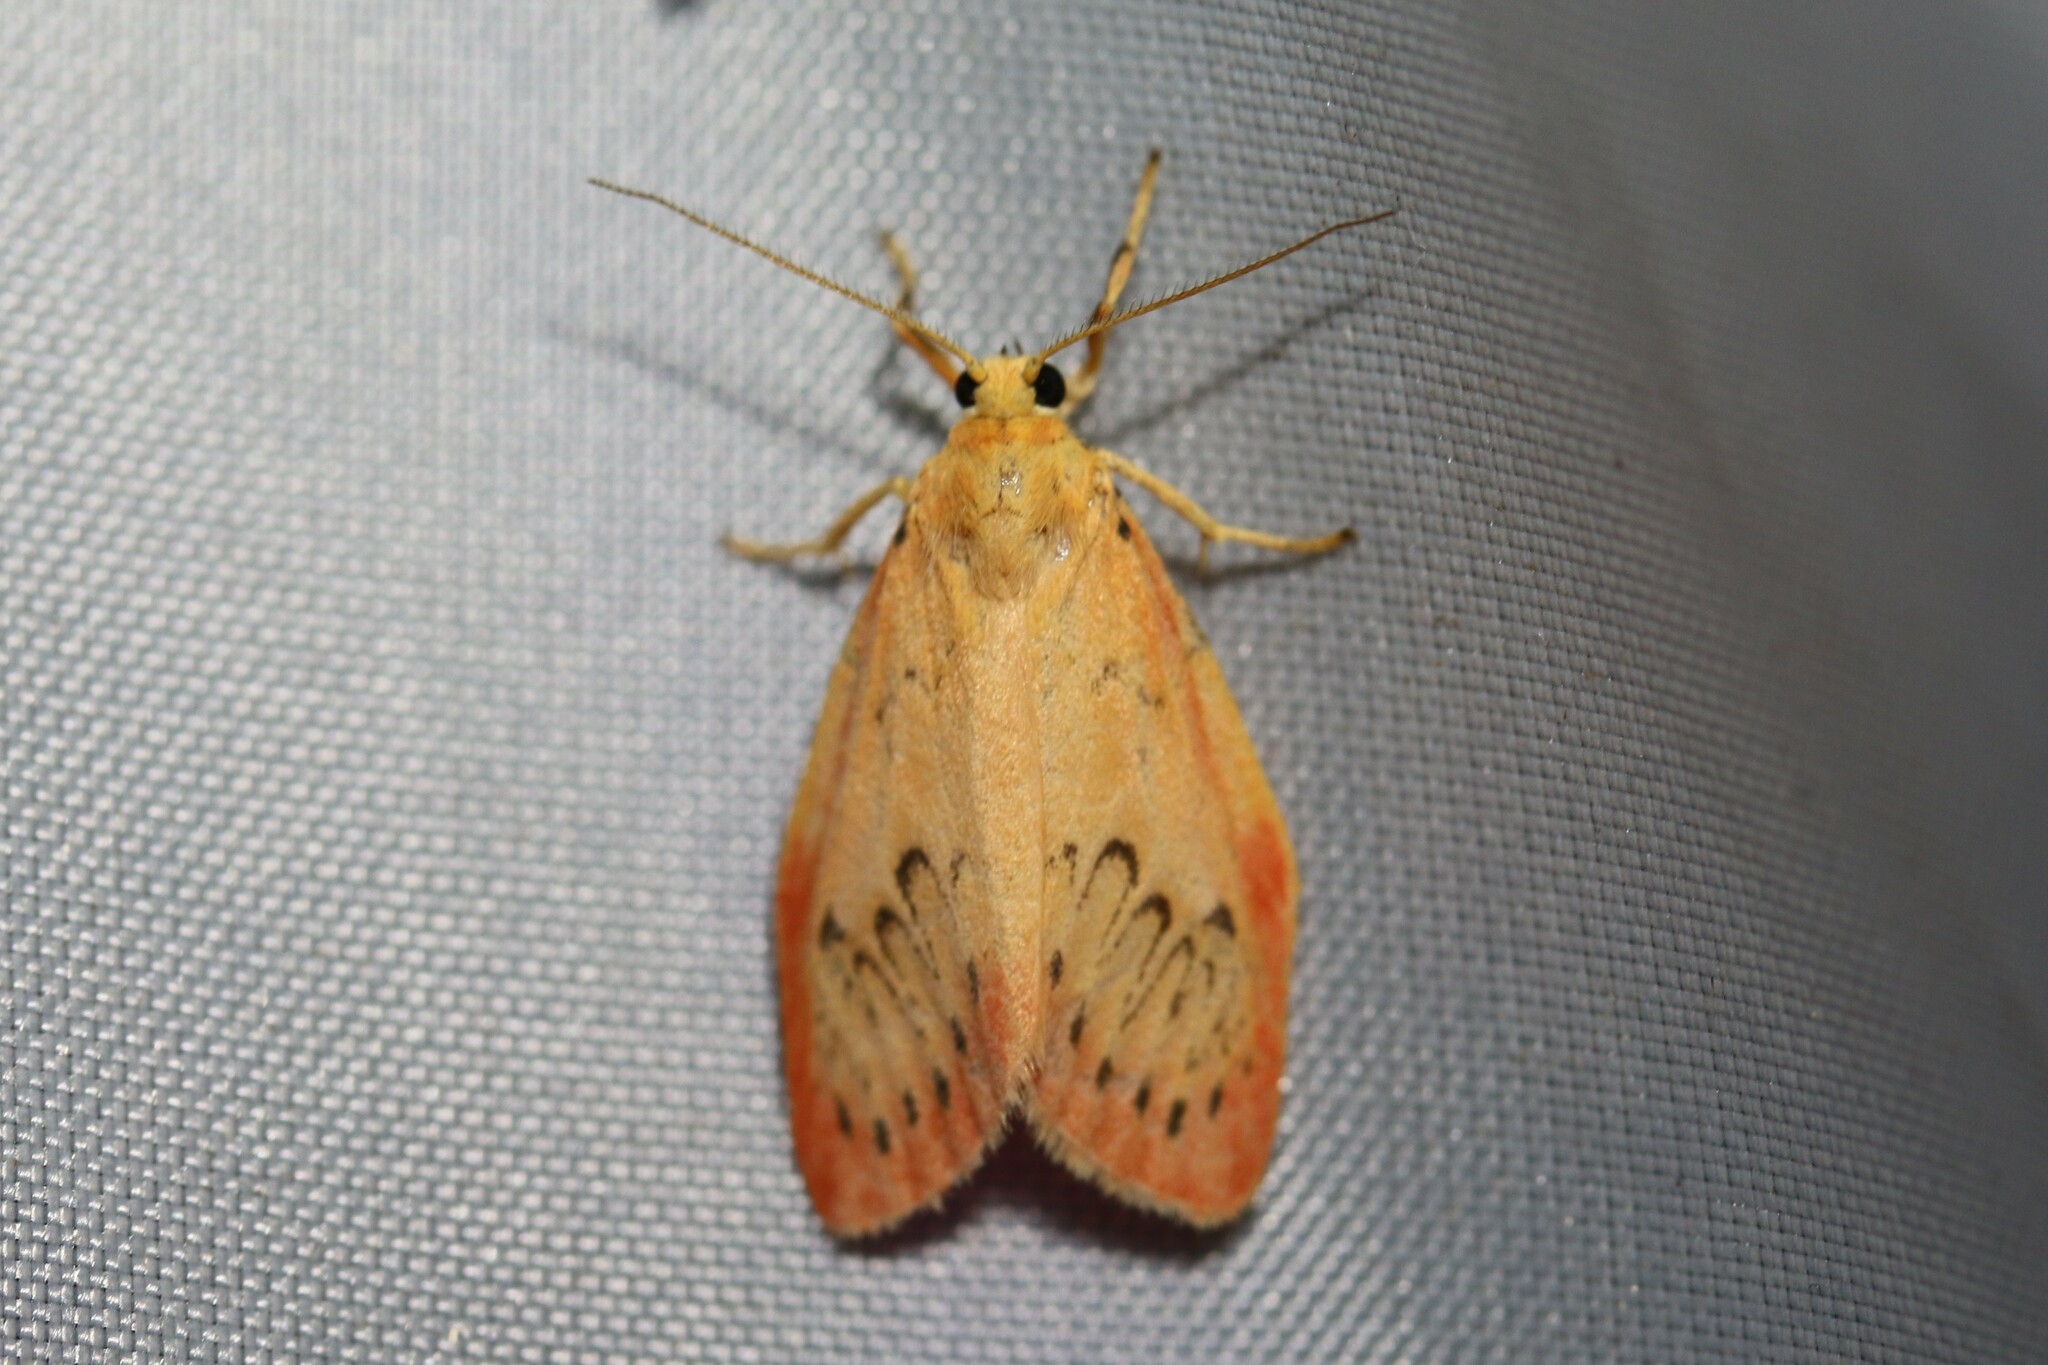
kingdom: Animalia
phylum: Arthropoda
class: Insecta
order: Lepidoptera
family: Erebidae
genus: Miltochrista
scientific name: Miltochrista miniata
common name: Rosy footman
